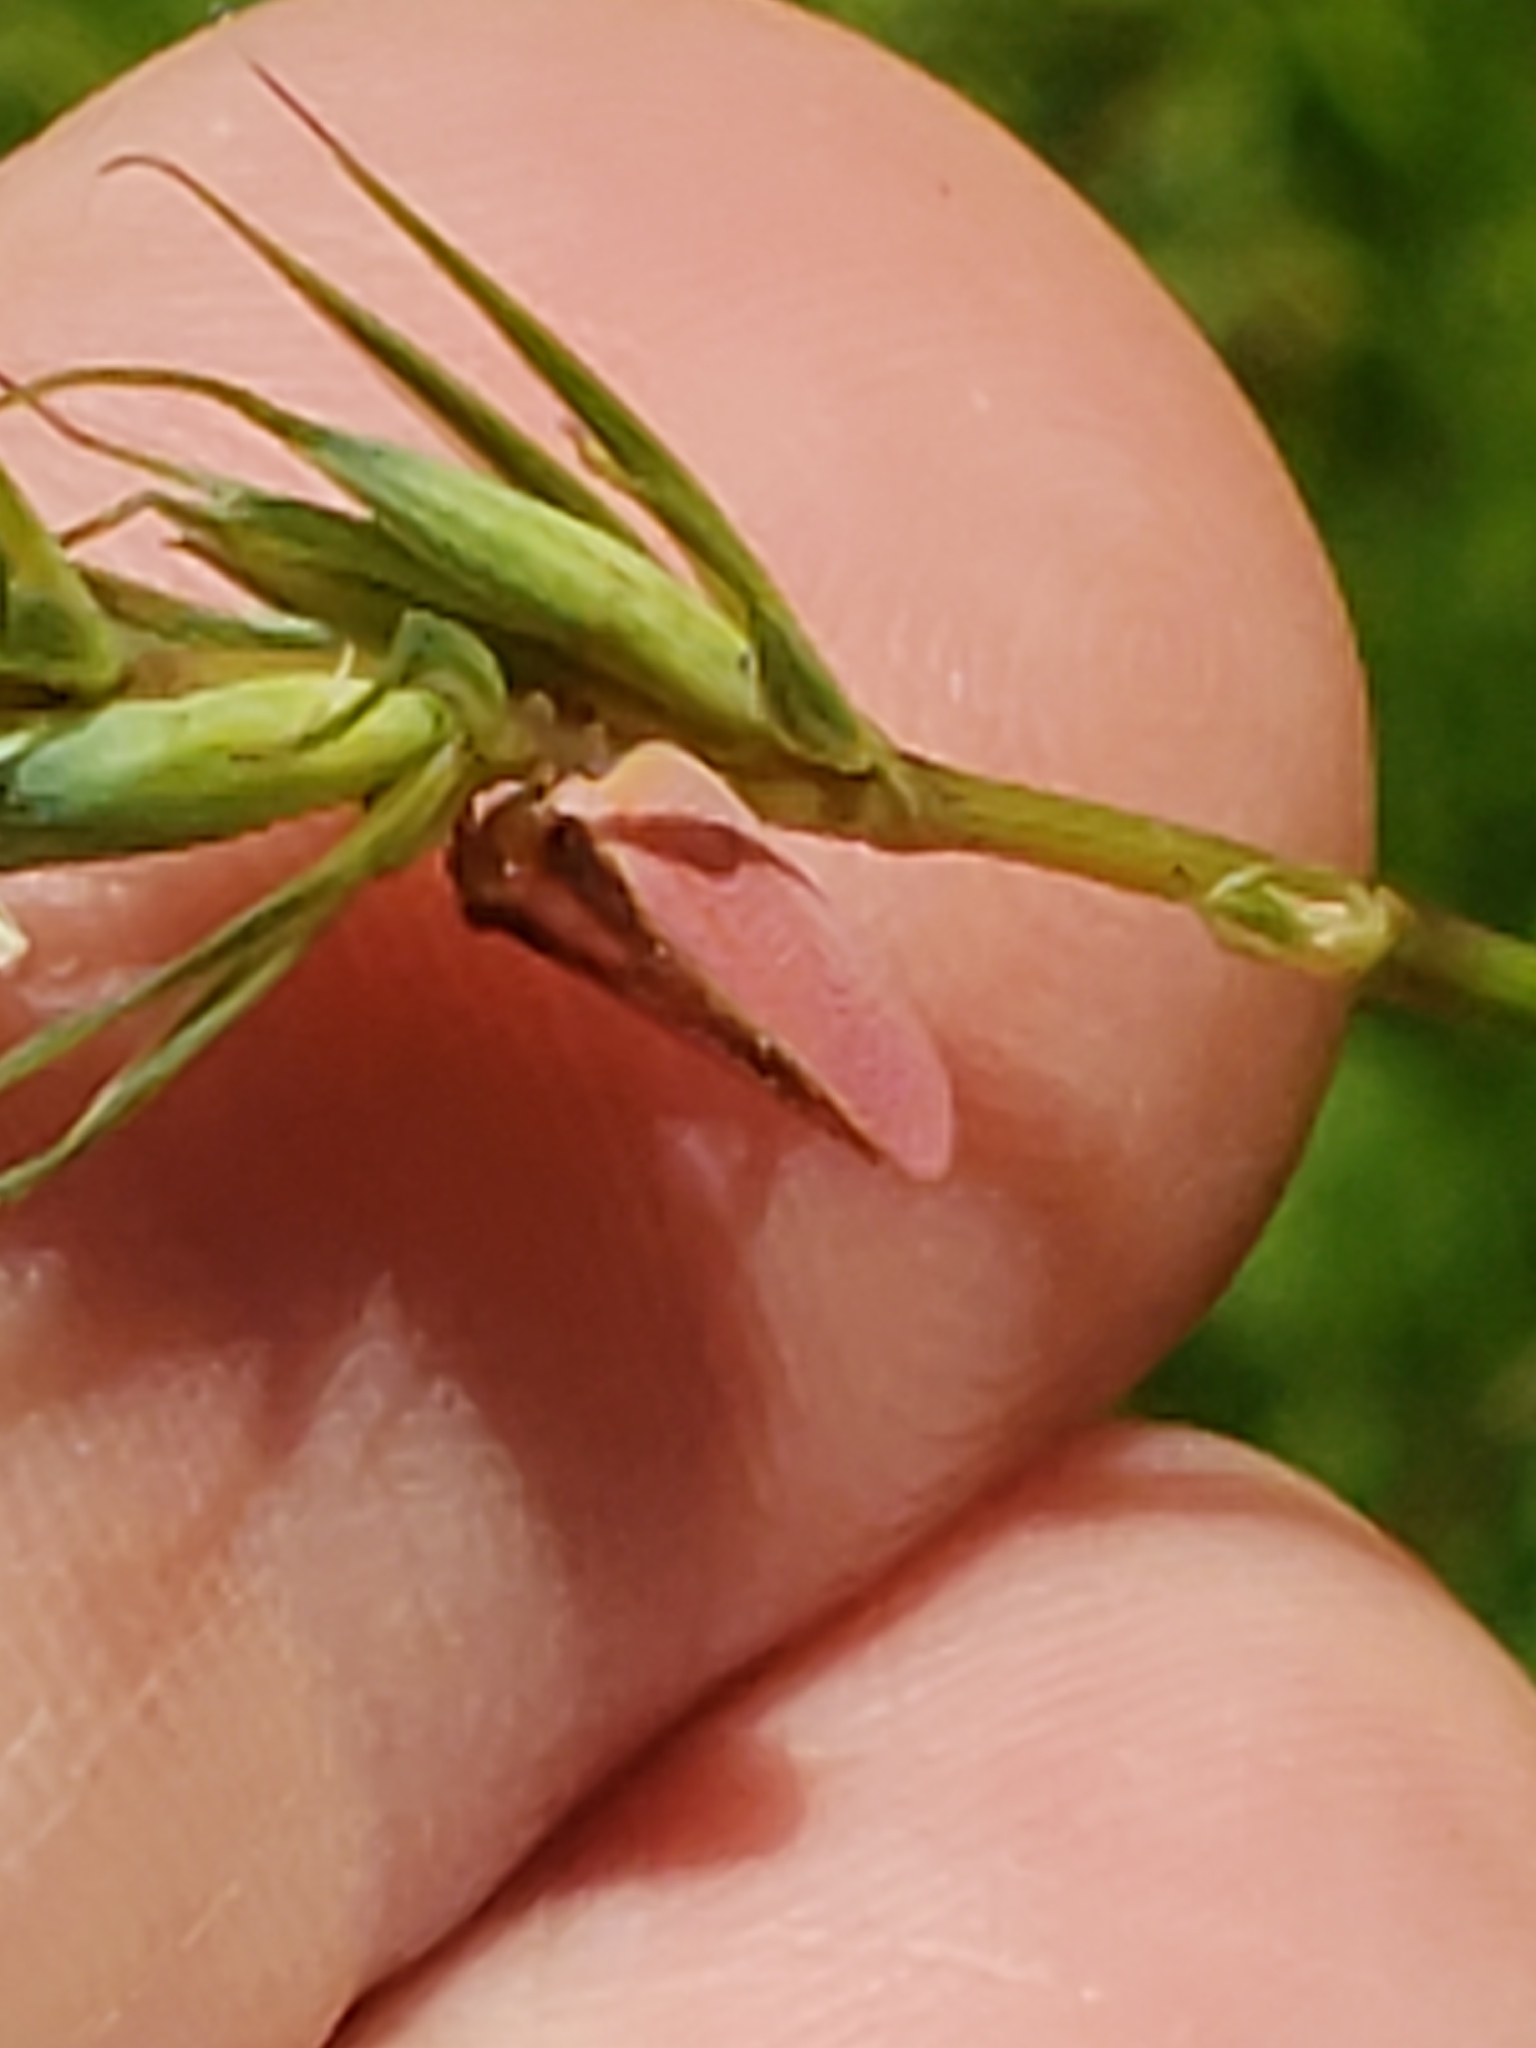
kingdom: Animalia
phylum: Arthropoda
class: Insecta
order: Hemiptera
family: Acanaloniidae
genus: Acanalonia
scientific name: Acanalonia bivittata
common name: Two-striped planthopper
